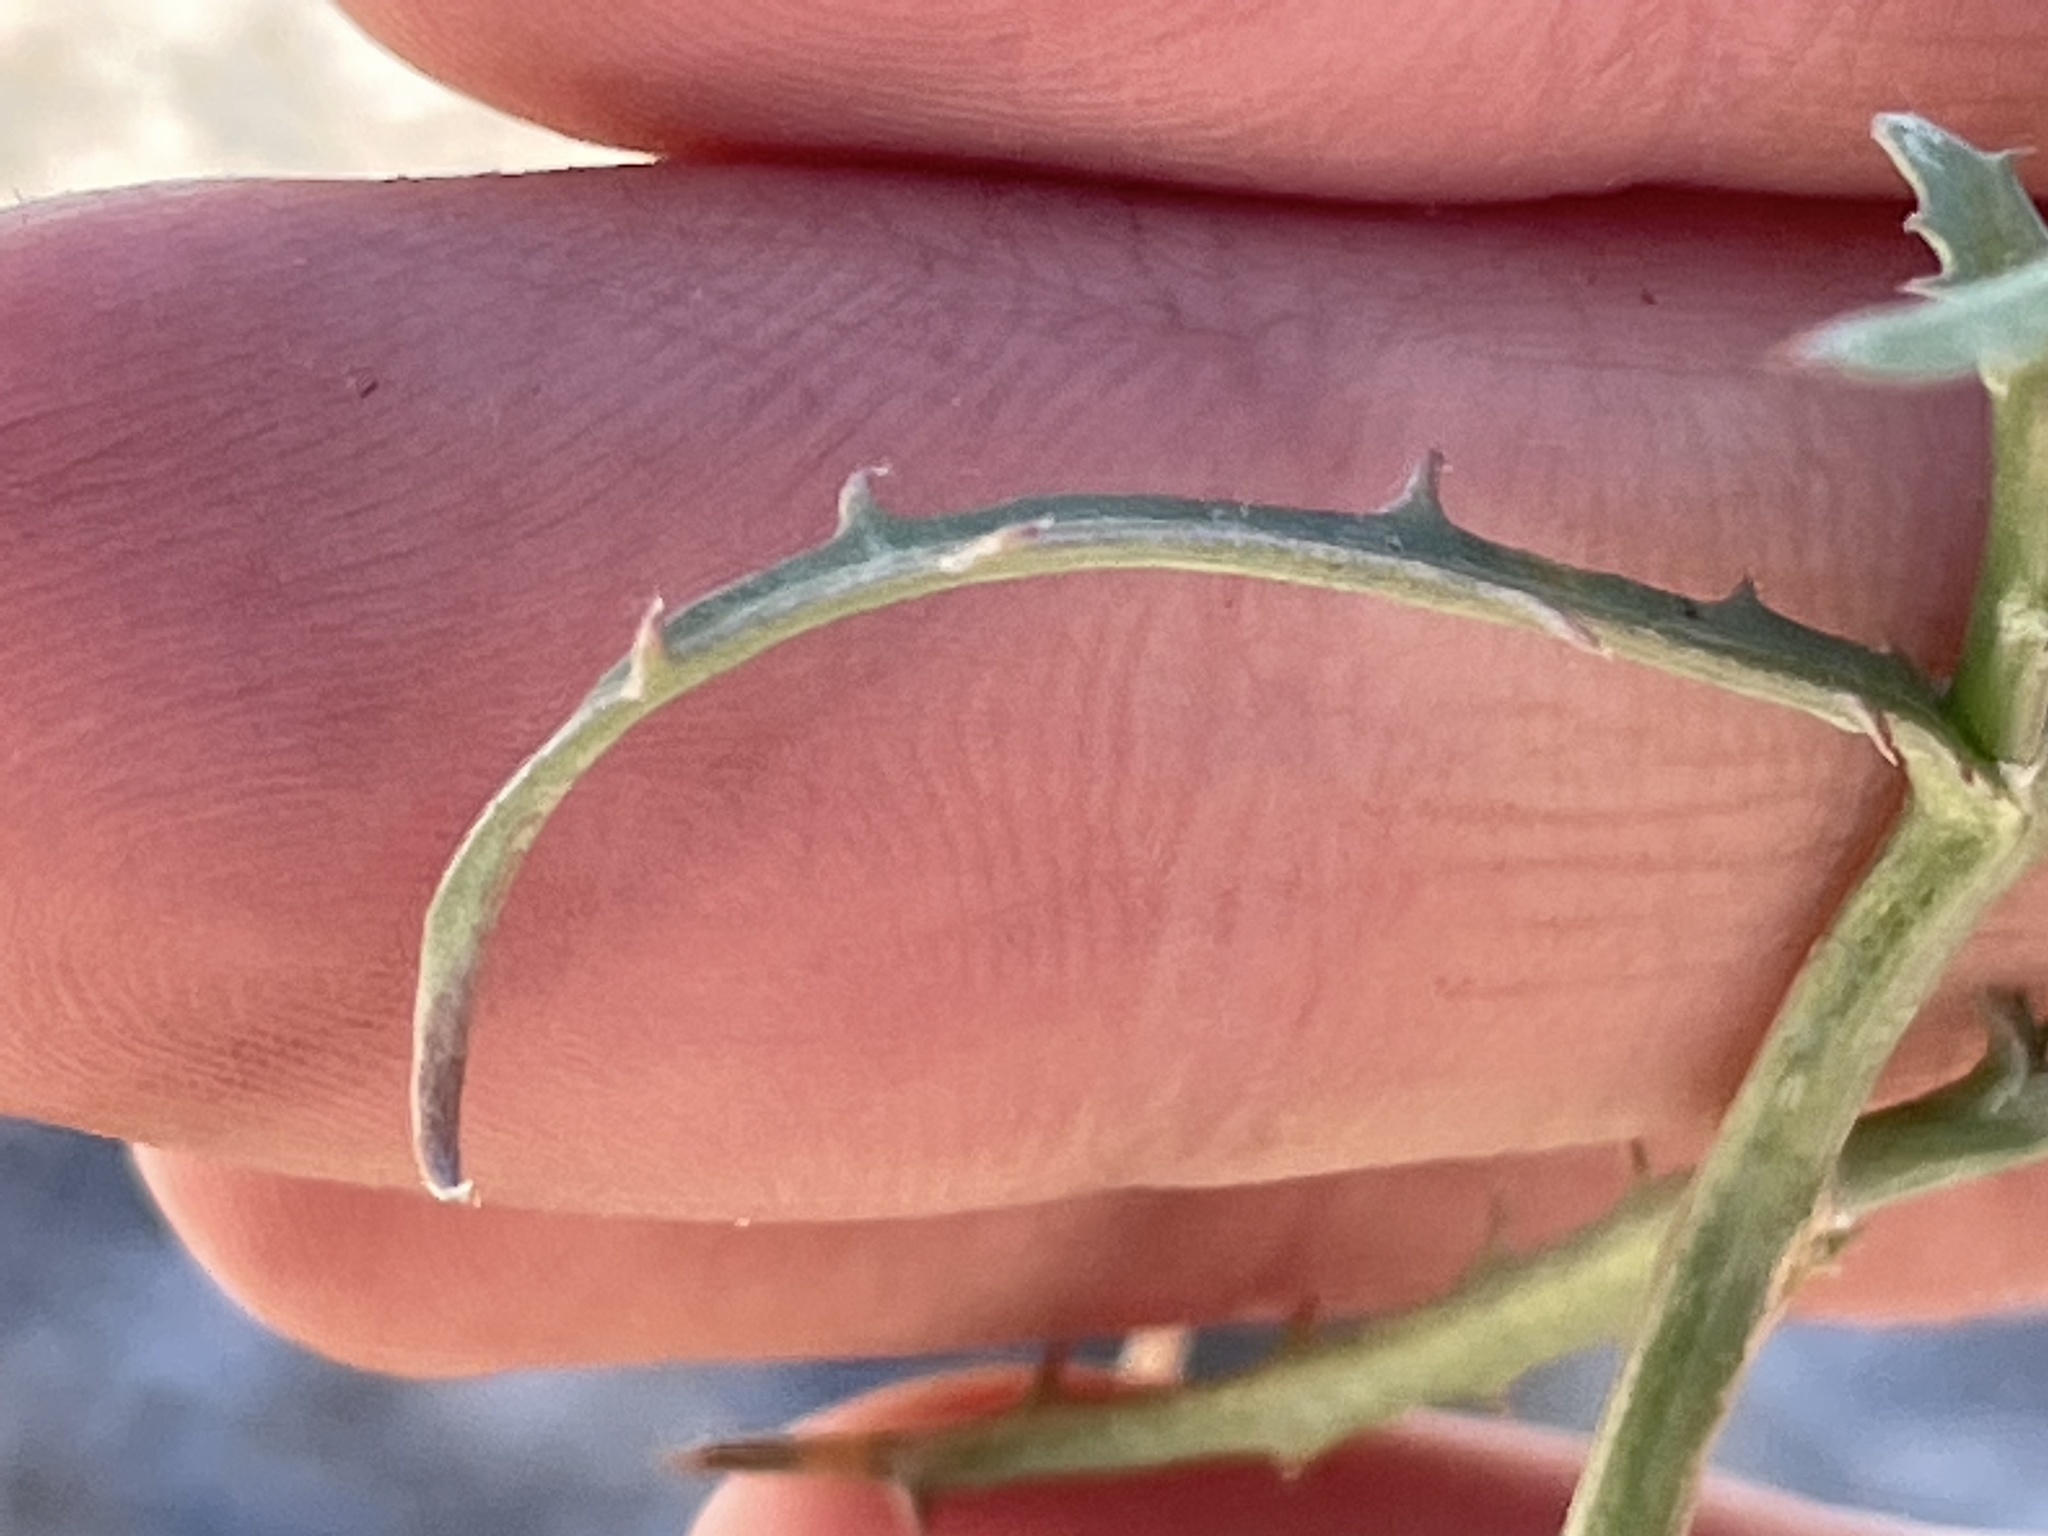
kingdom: Plantae
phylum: Tracheophyta
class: Magnoliopsida
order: Asterales
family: Asteraceae
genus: Stephanomeria
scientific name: Stephanomeria pauciflora
